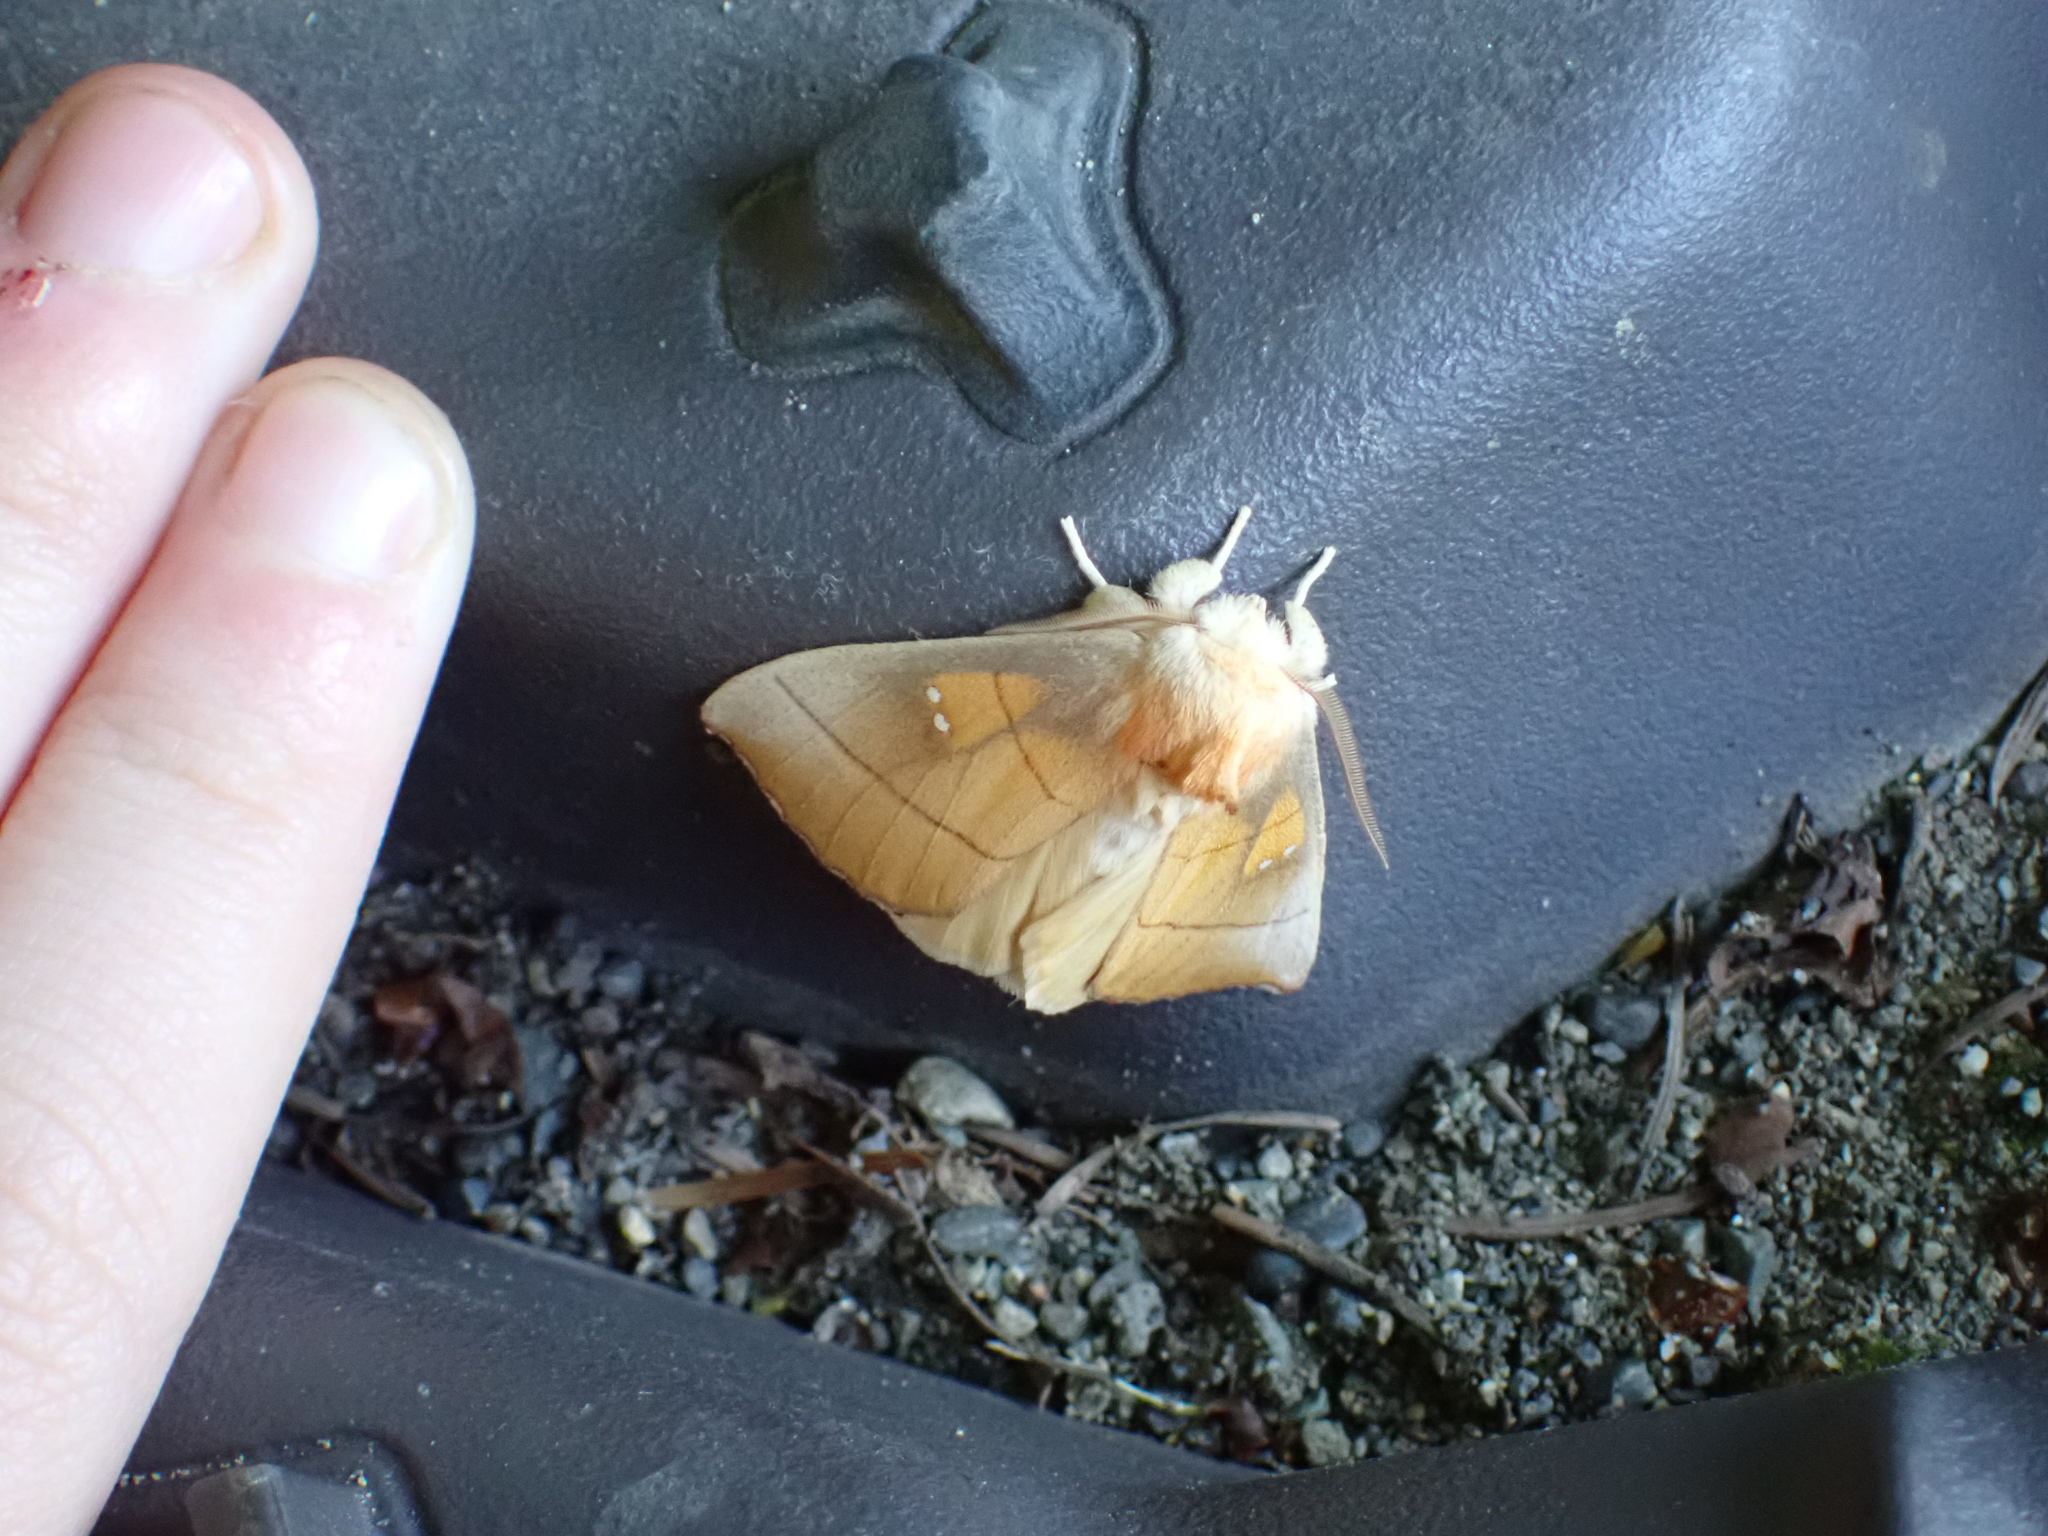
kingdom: Animalia
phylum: Arthropoda
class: Insecta
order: Lepidoptera
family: Notodontidae
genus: Nadata
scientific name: Nadata gibbosa
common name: White-dotted prominent
